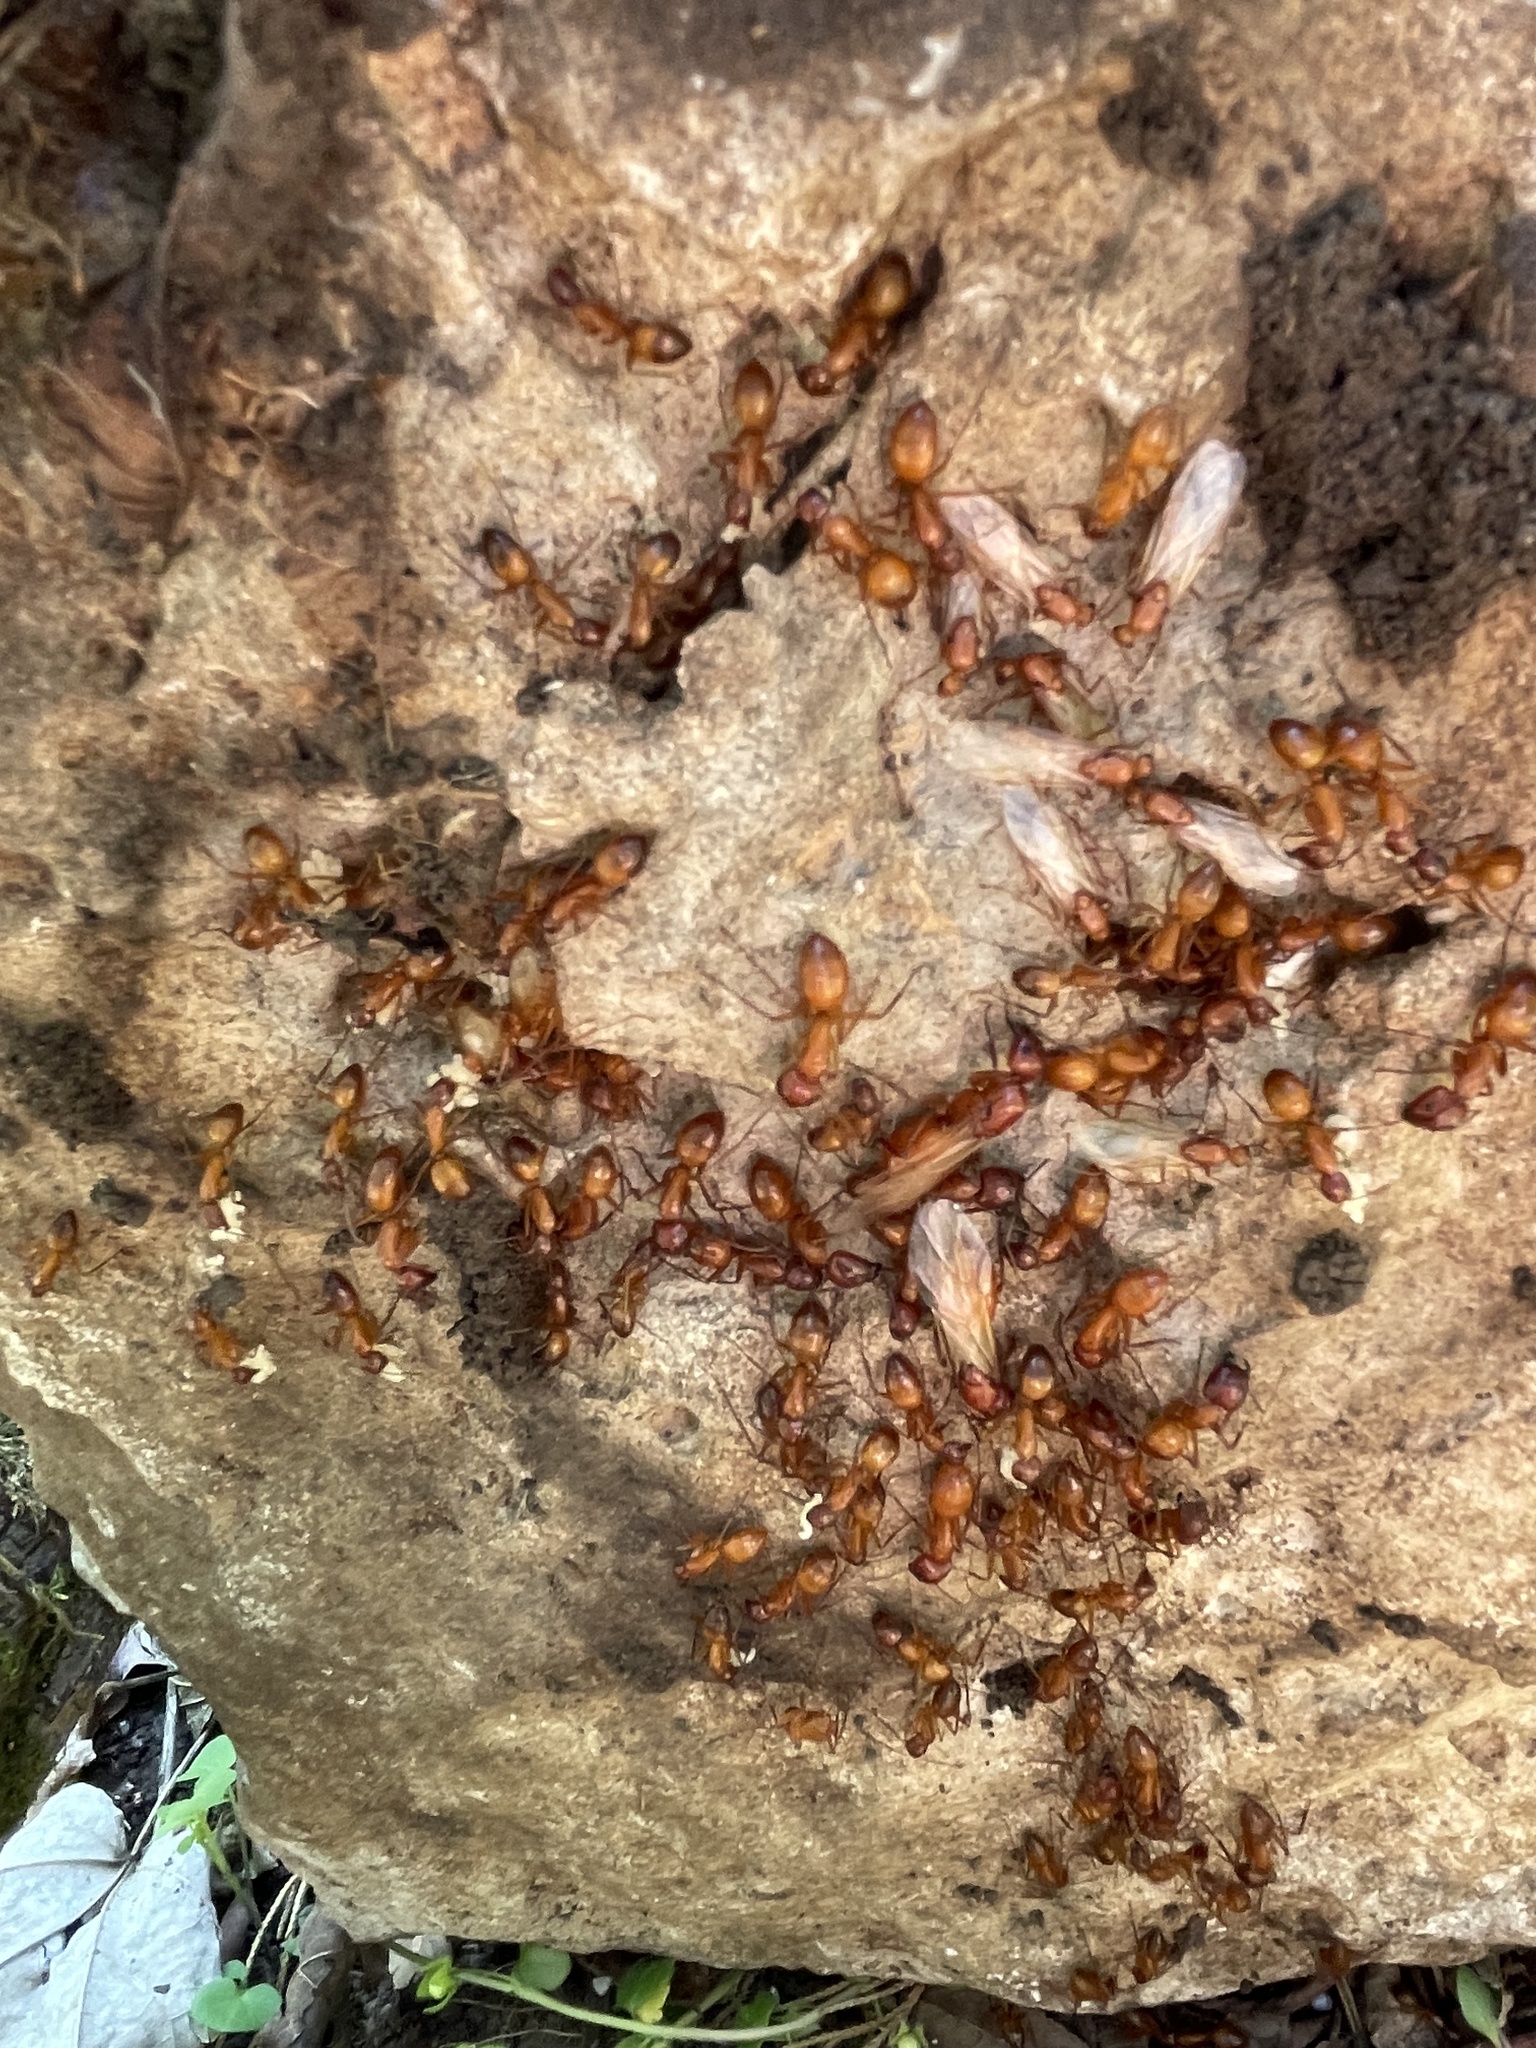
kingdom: Animalia
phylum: Arthropoda
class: Insecta
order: Hymenoptera
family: Formicidae
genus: Camponotus
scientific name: Camponotus castaneus
